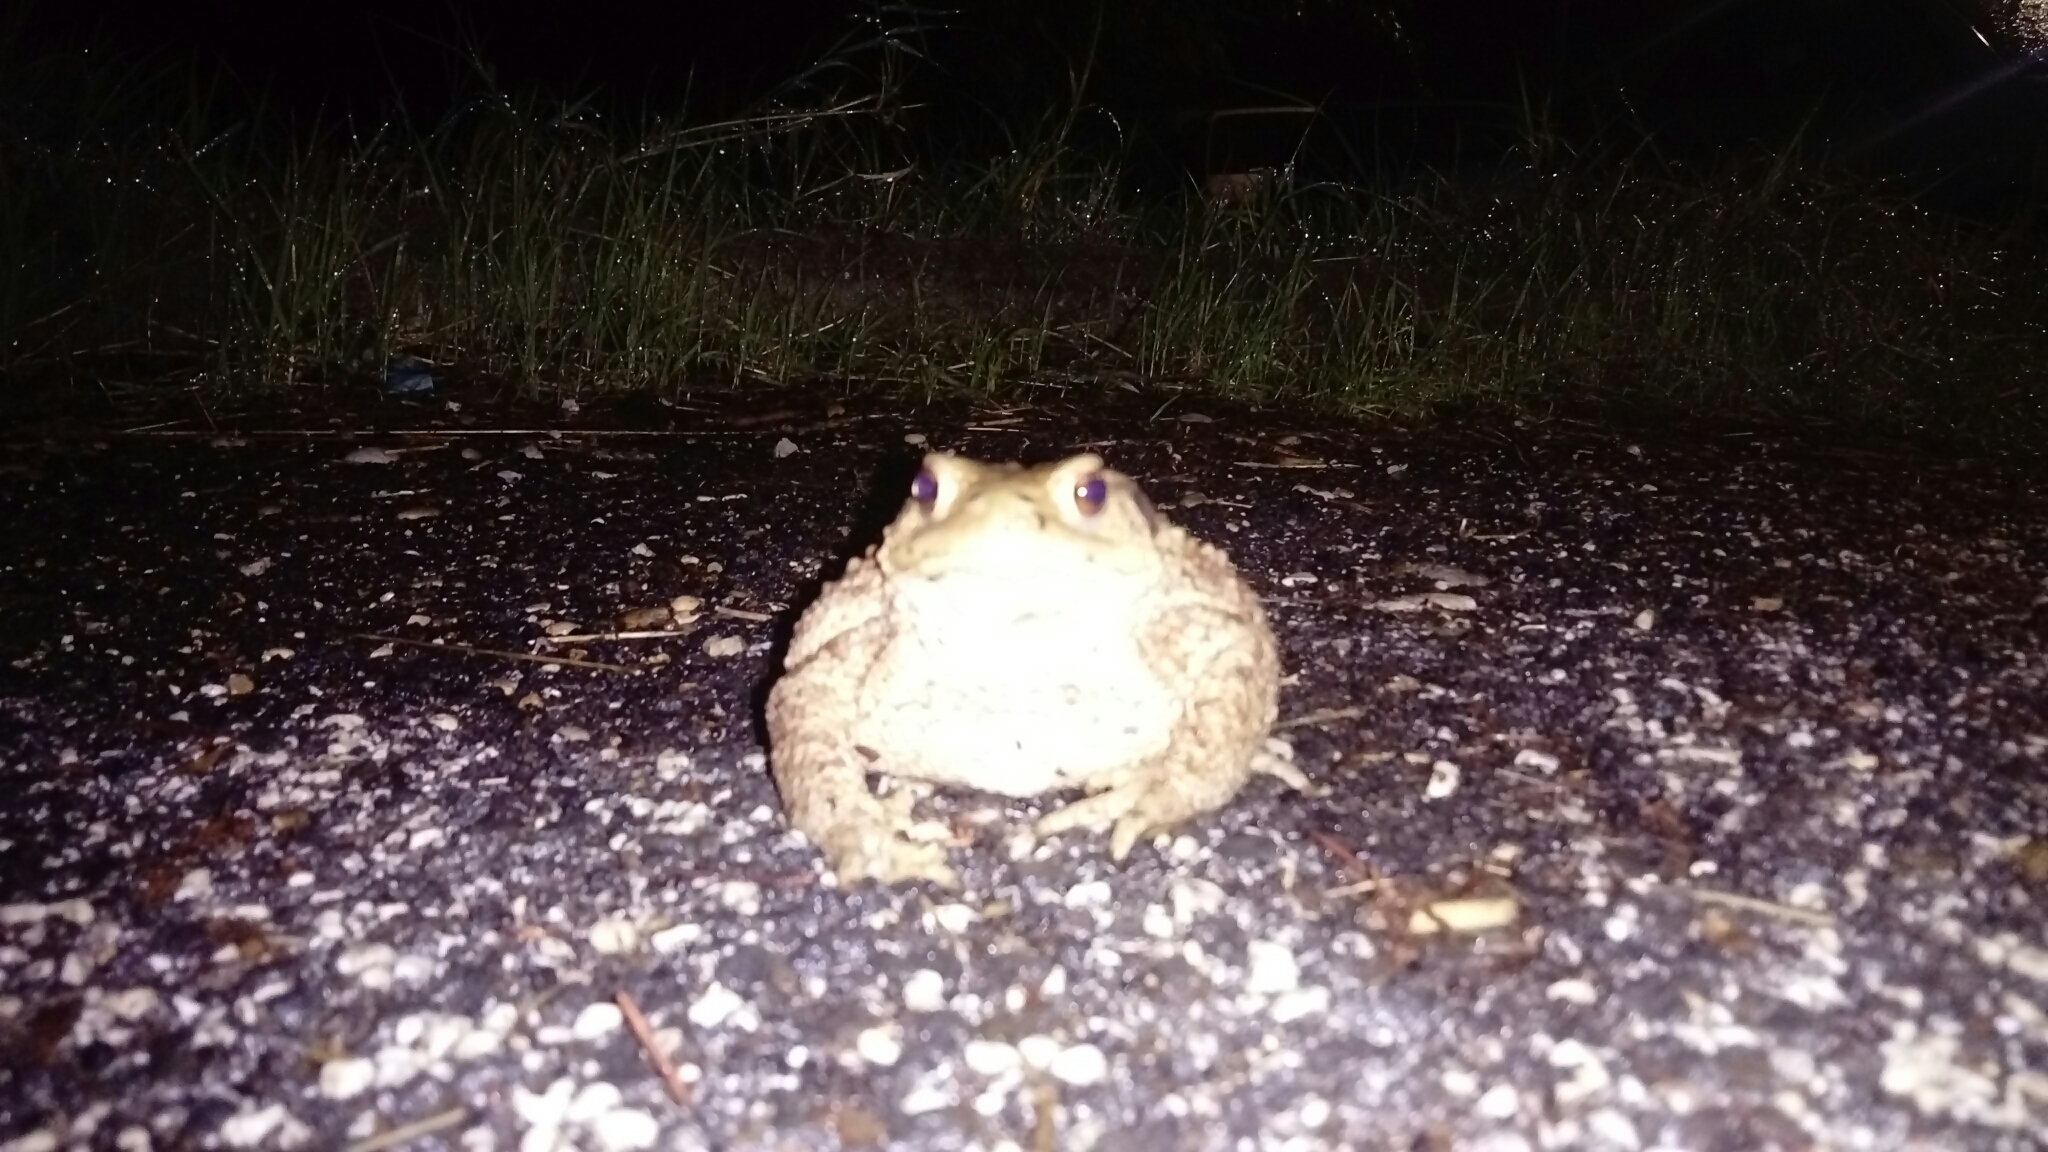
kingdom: Animalia
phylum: Chordata
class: Amphibia
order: Anura
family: Bufonidae
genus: Bufo
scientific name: Bufo bufo
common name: Common toad
